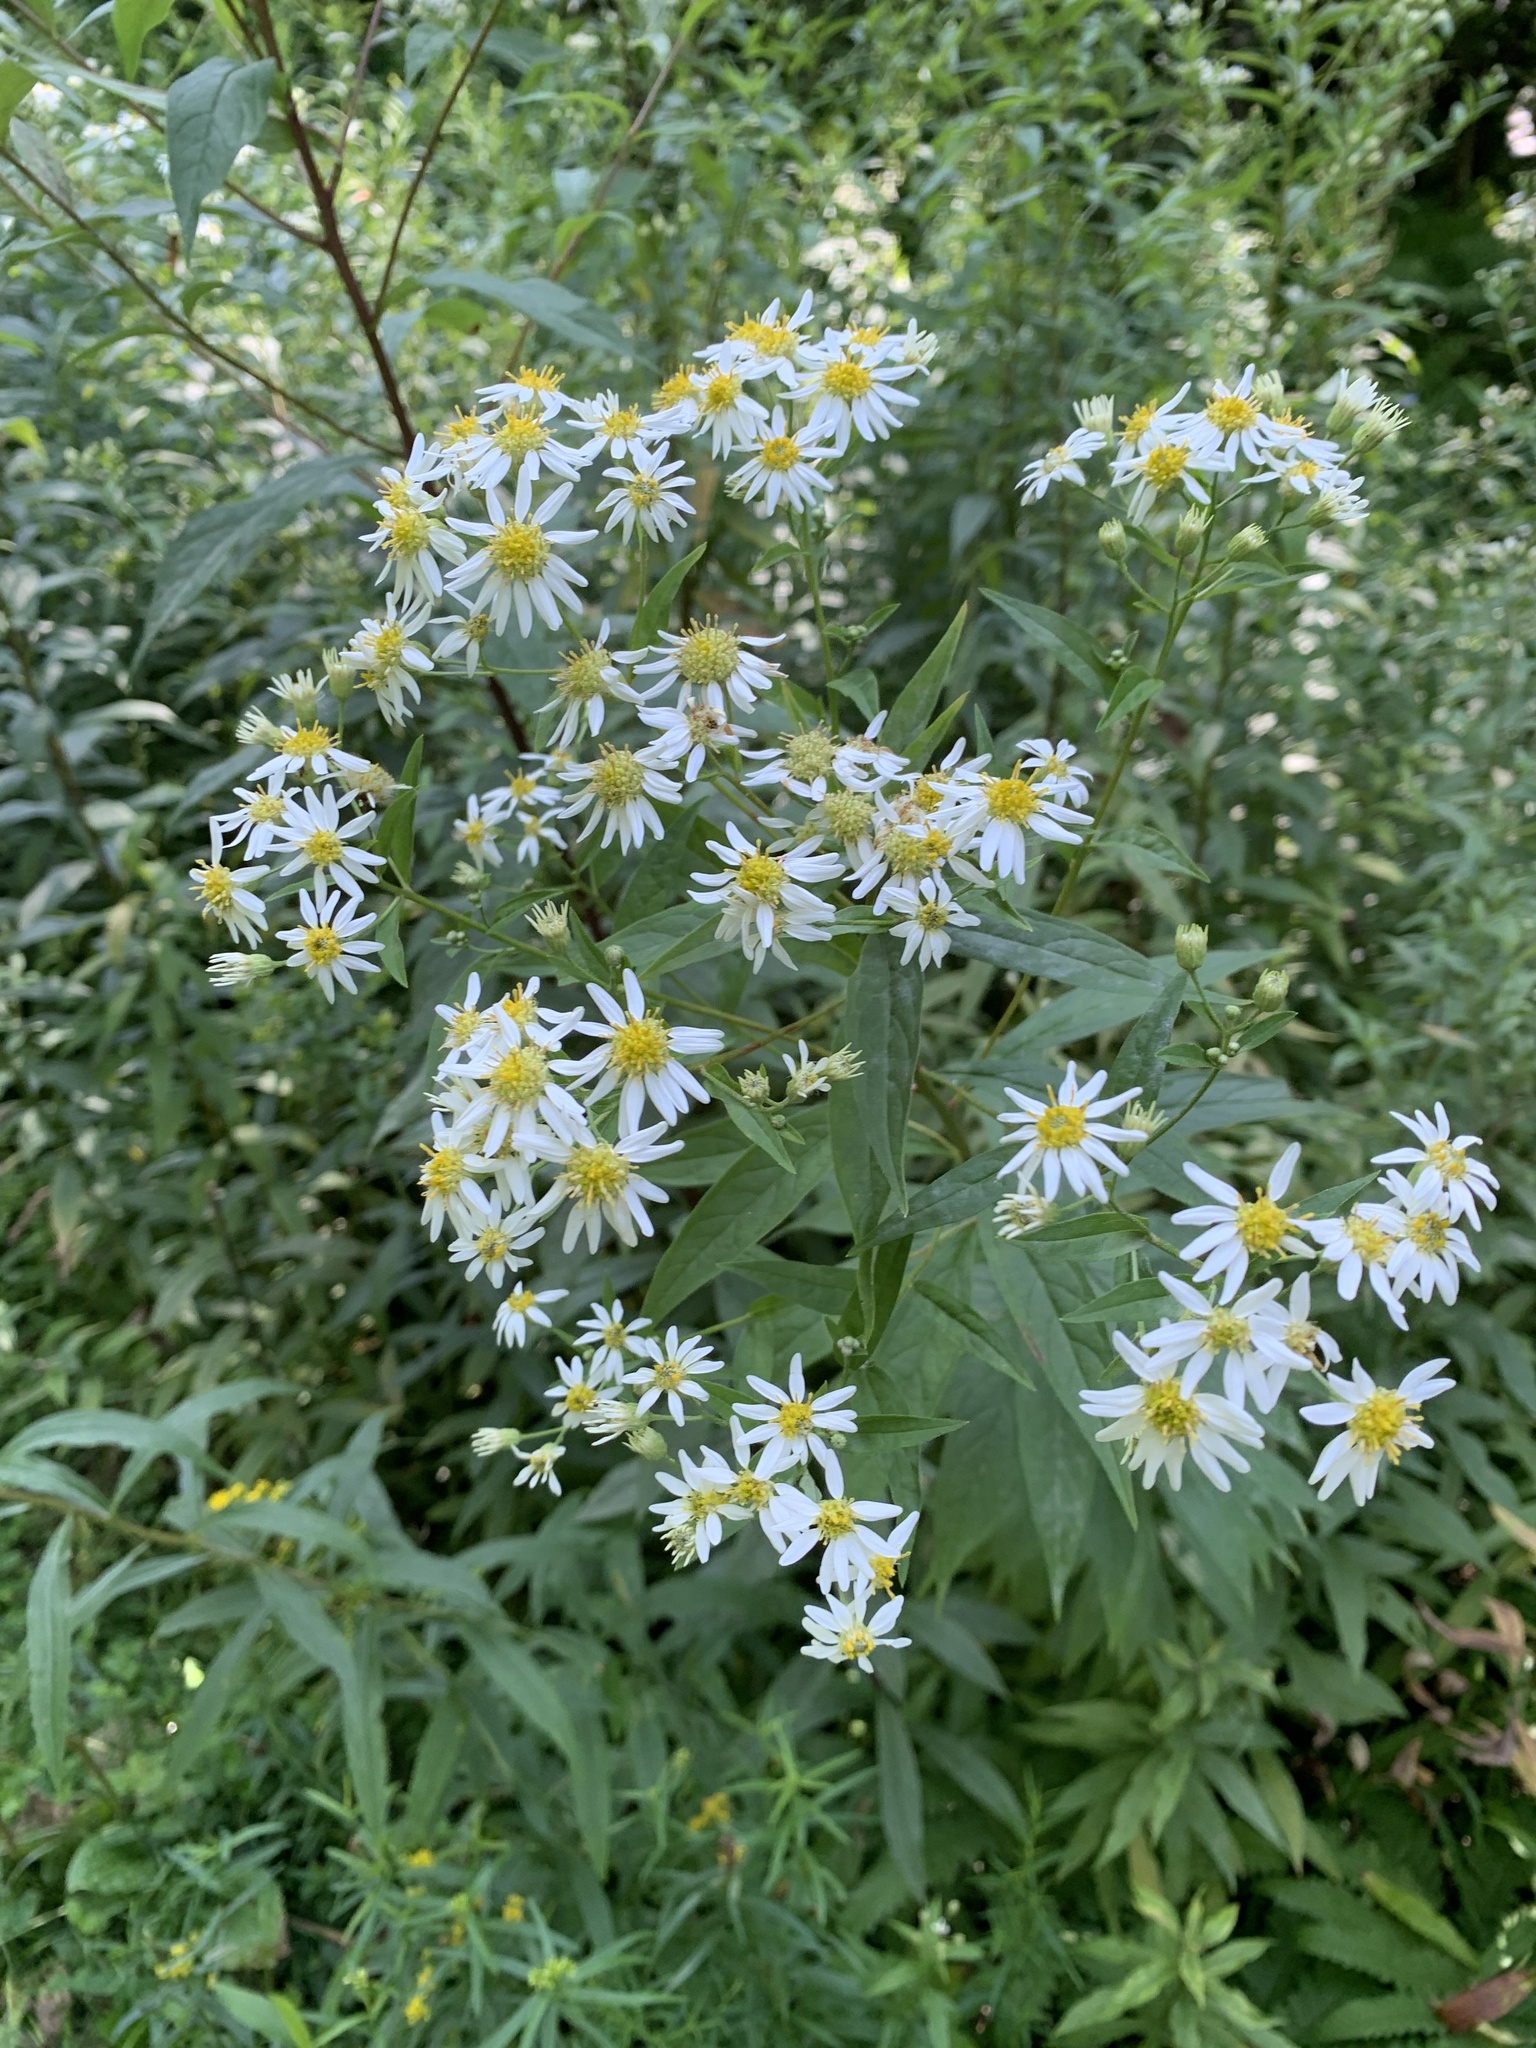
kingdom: Plantae
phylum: Tracheophyta
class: Magnoliopsida
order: Asterales
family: Asteraceae
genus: Doellingeria
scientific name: Doellingeria umbellata
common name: Flat-top white aster
